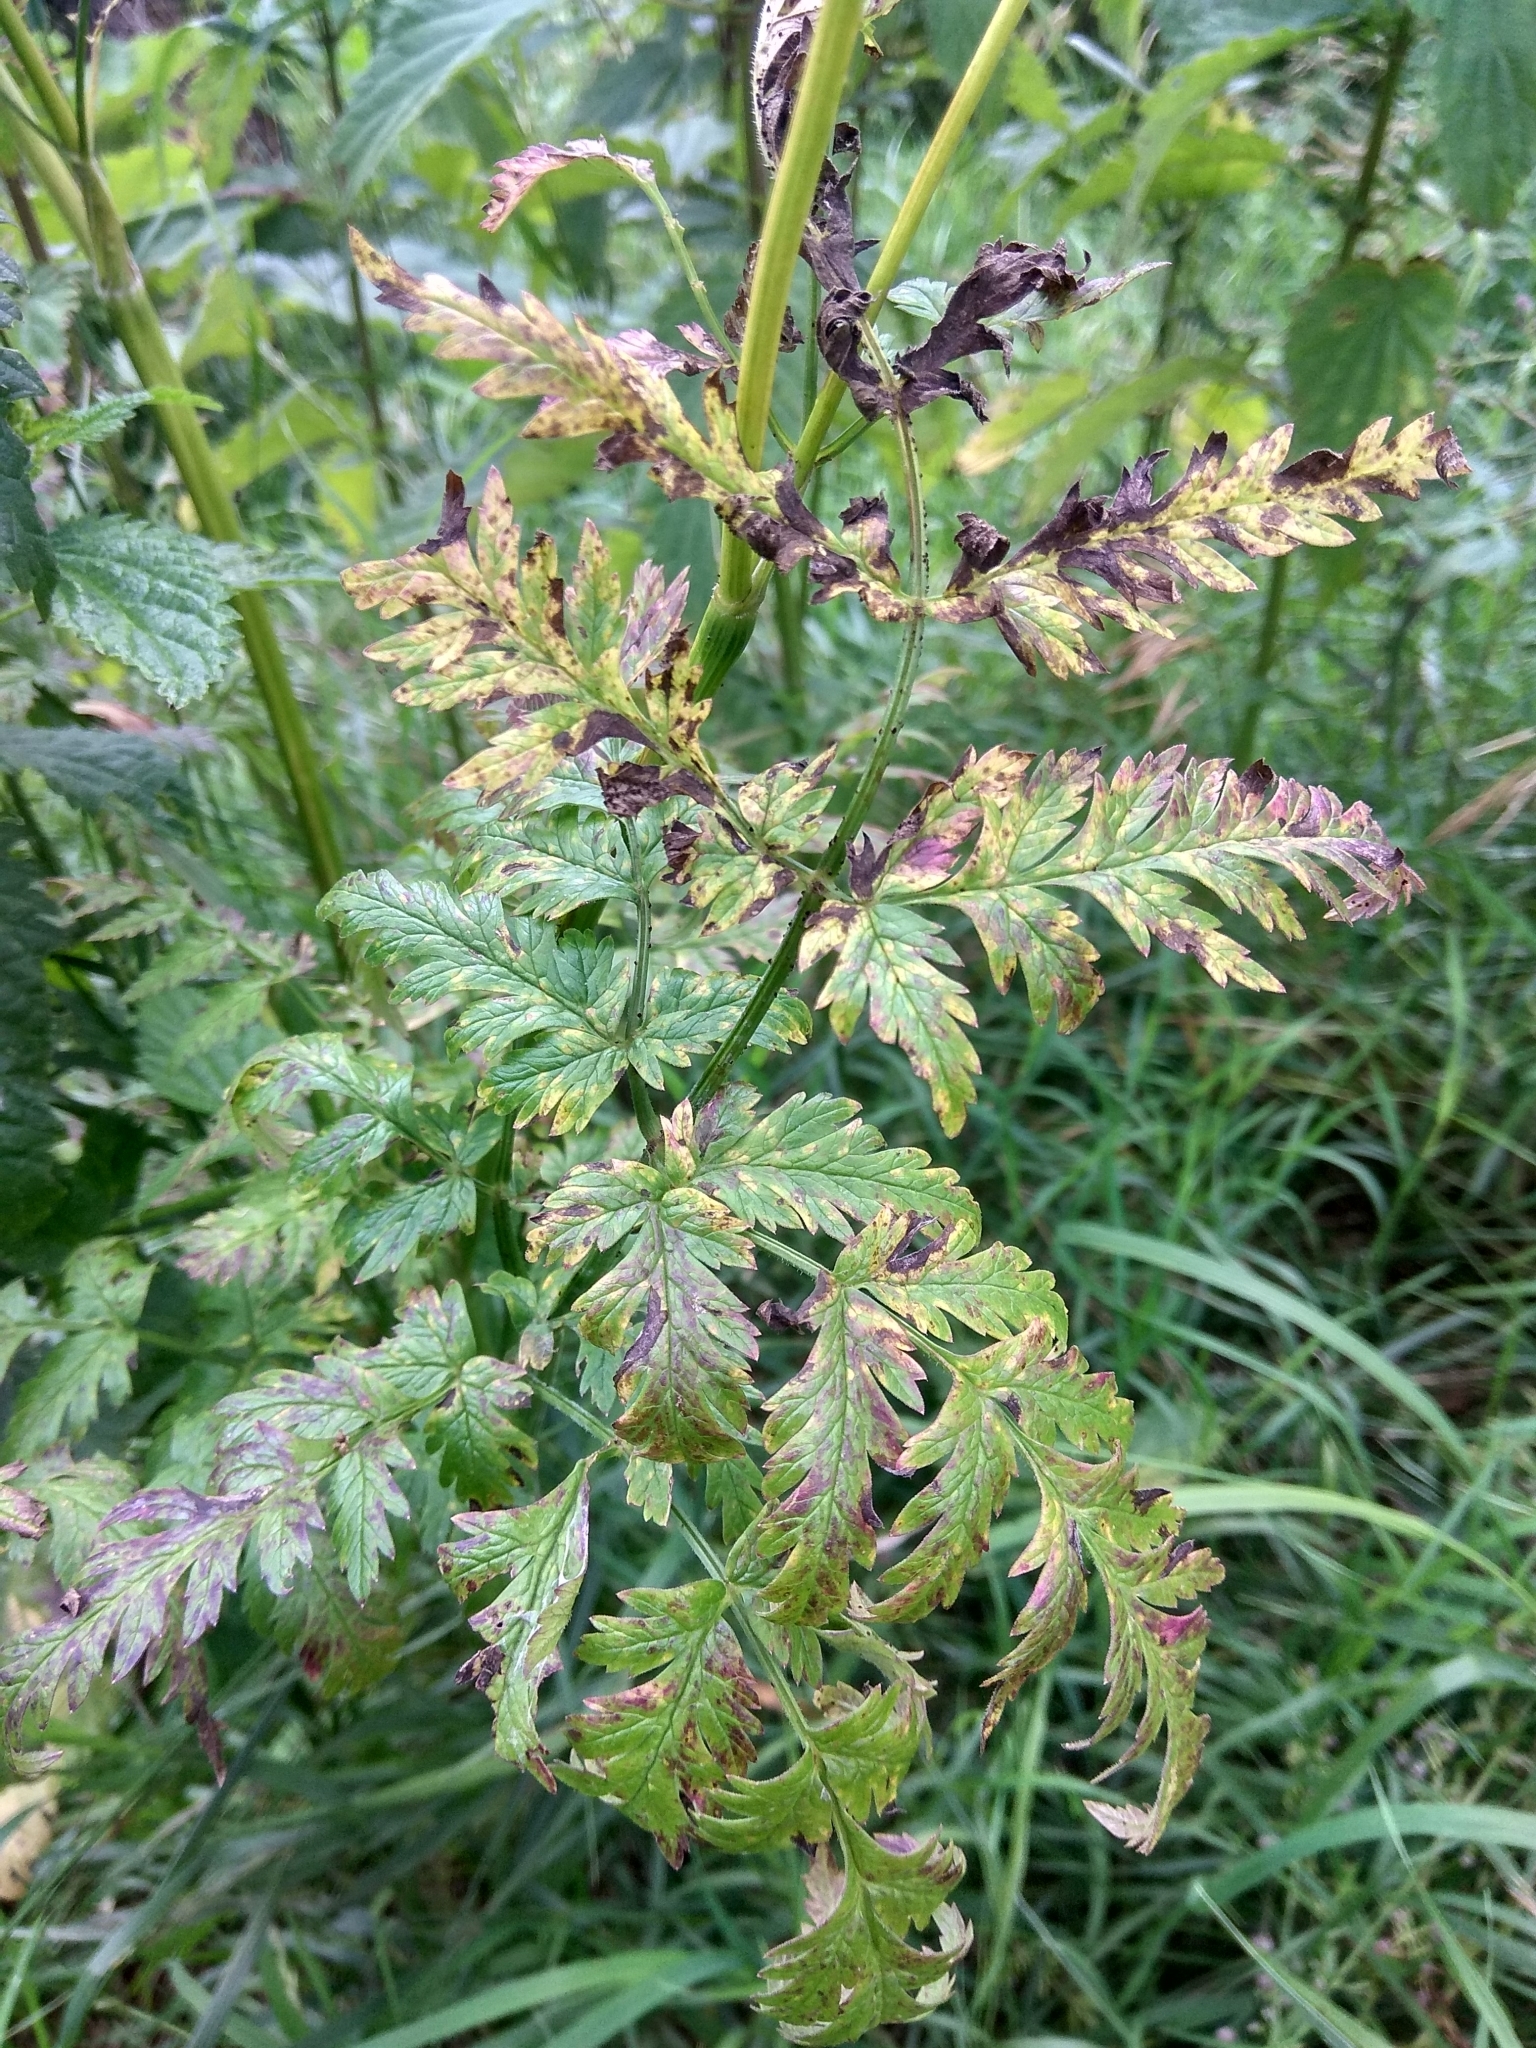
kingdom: Plantae
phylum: Tracheophyta
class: Magnoliopsida
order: Apiales
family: Apiaceae
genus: Anthriscus
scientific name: Anthriscus sylvestris
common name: Cow parsley
